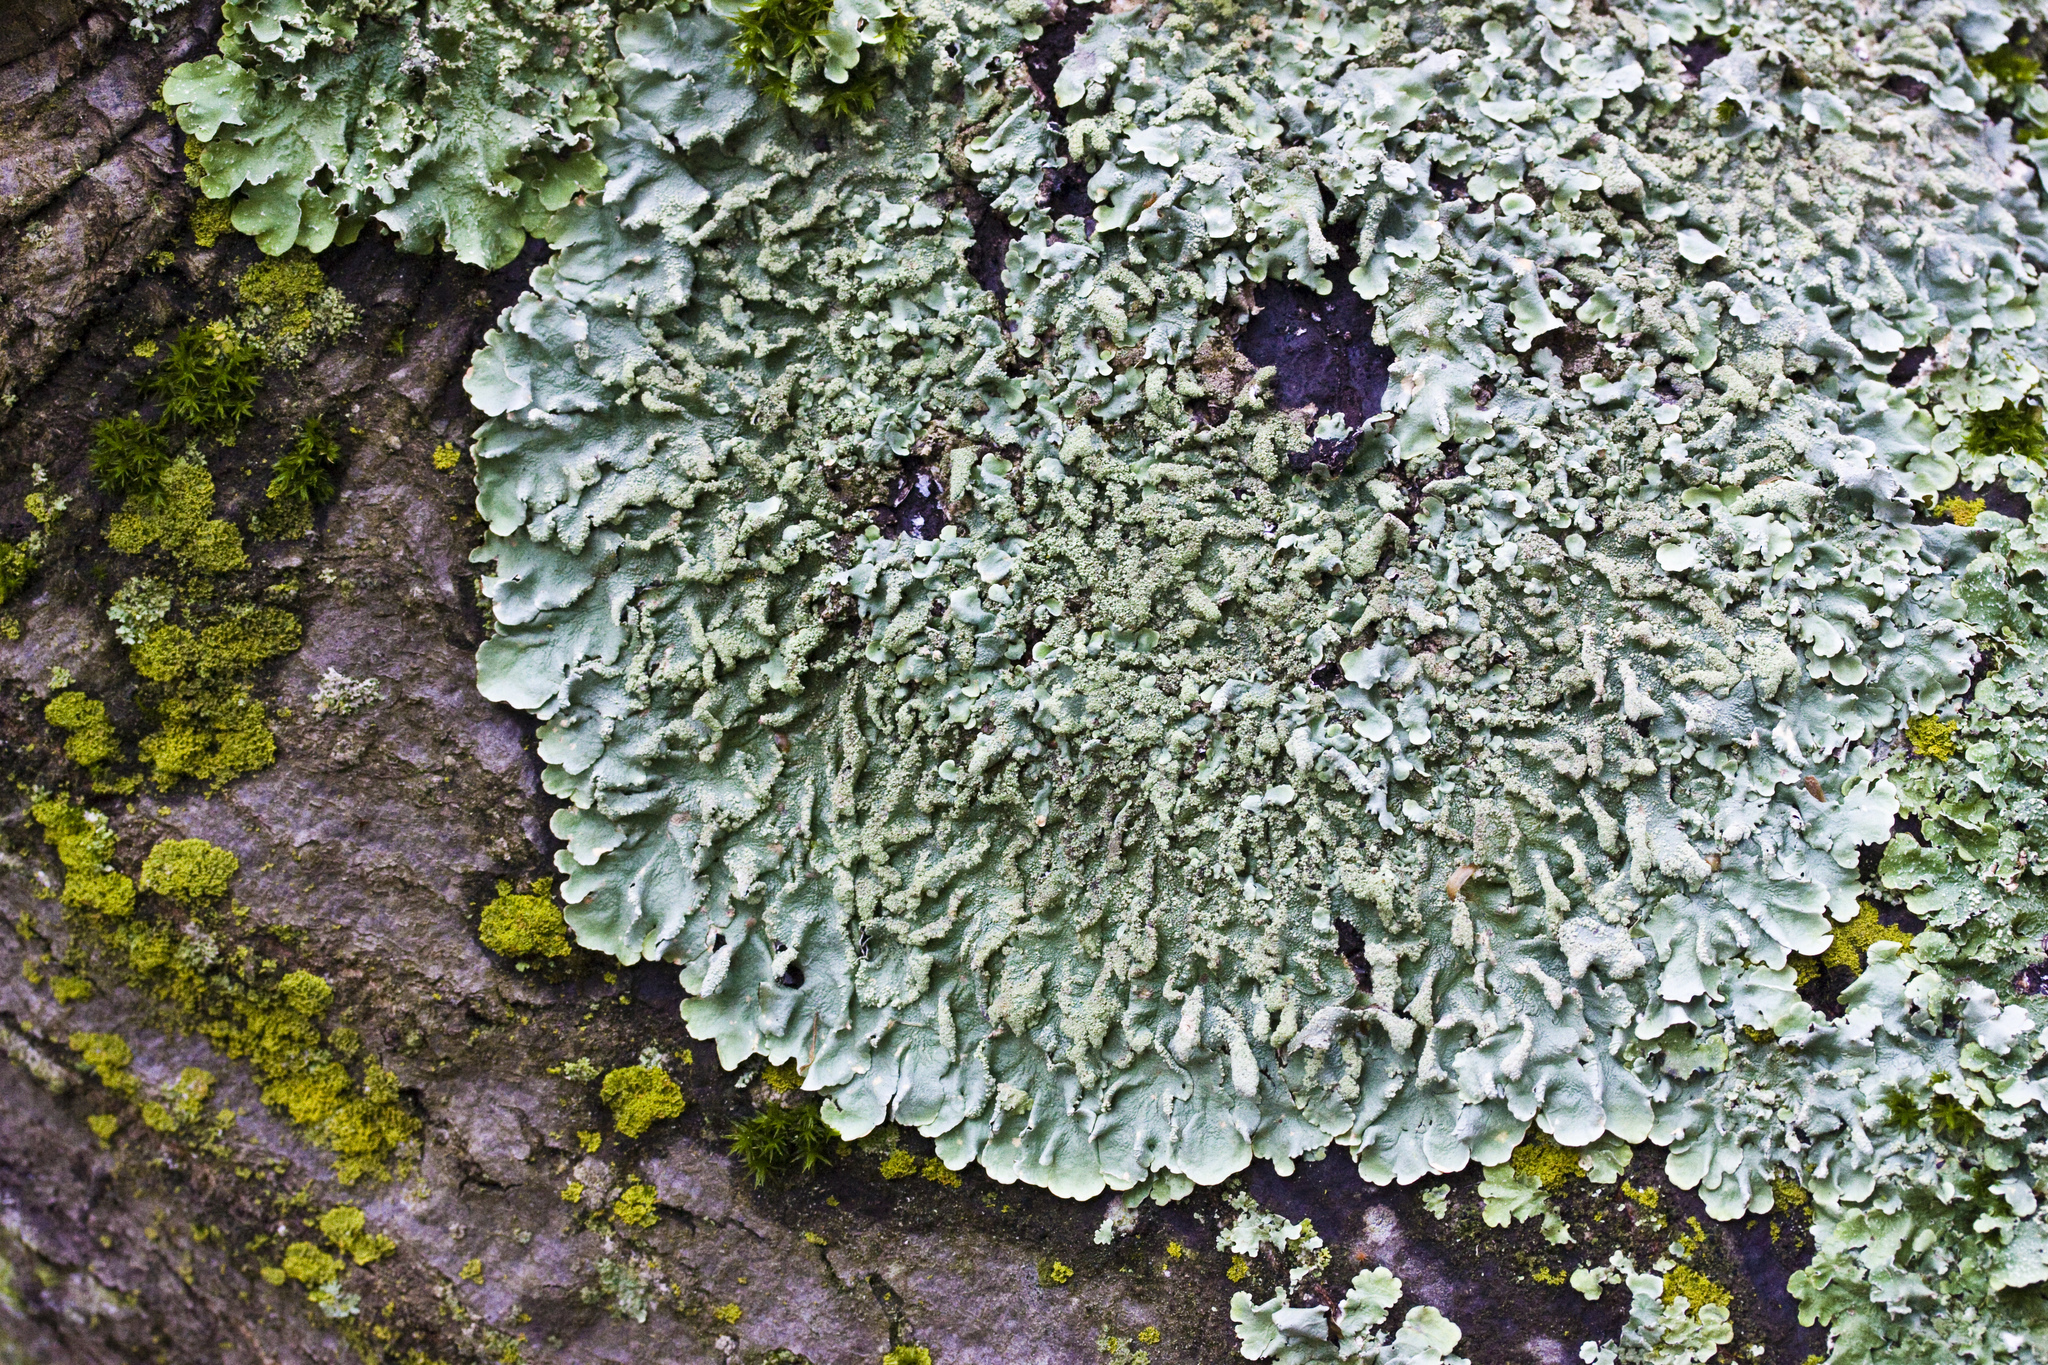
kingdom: Fungi
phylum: Ascomycota
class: Lecanoromycetes
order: Lecanorales
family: Parmeliaceae
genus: Flavoparmelia
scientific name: Flavoparmelia caperata
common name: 40-mile per hour lichen
